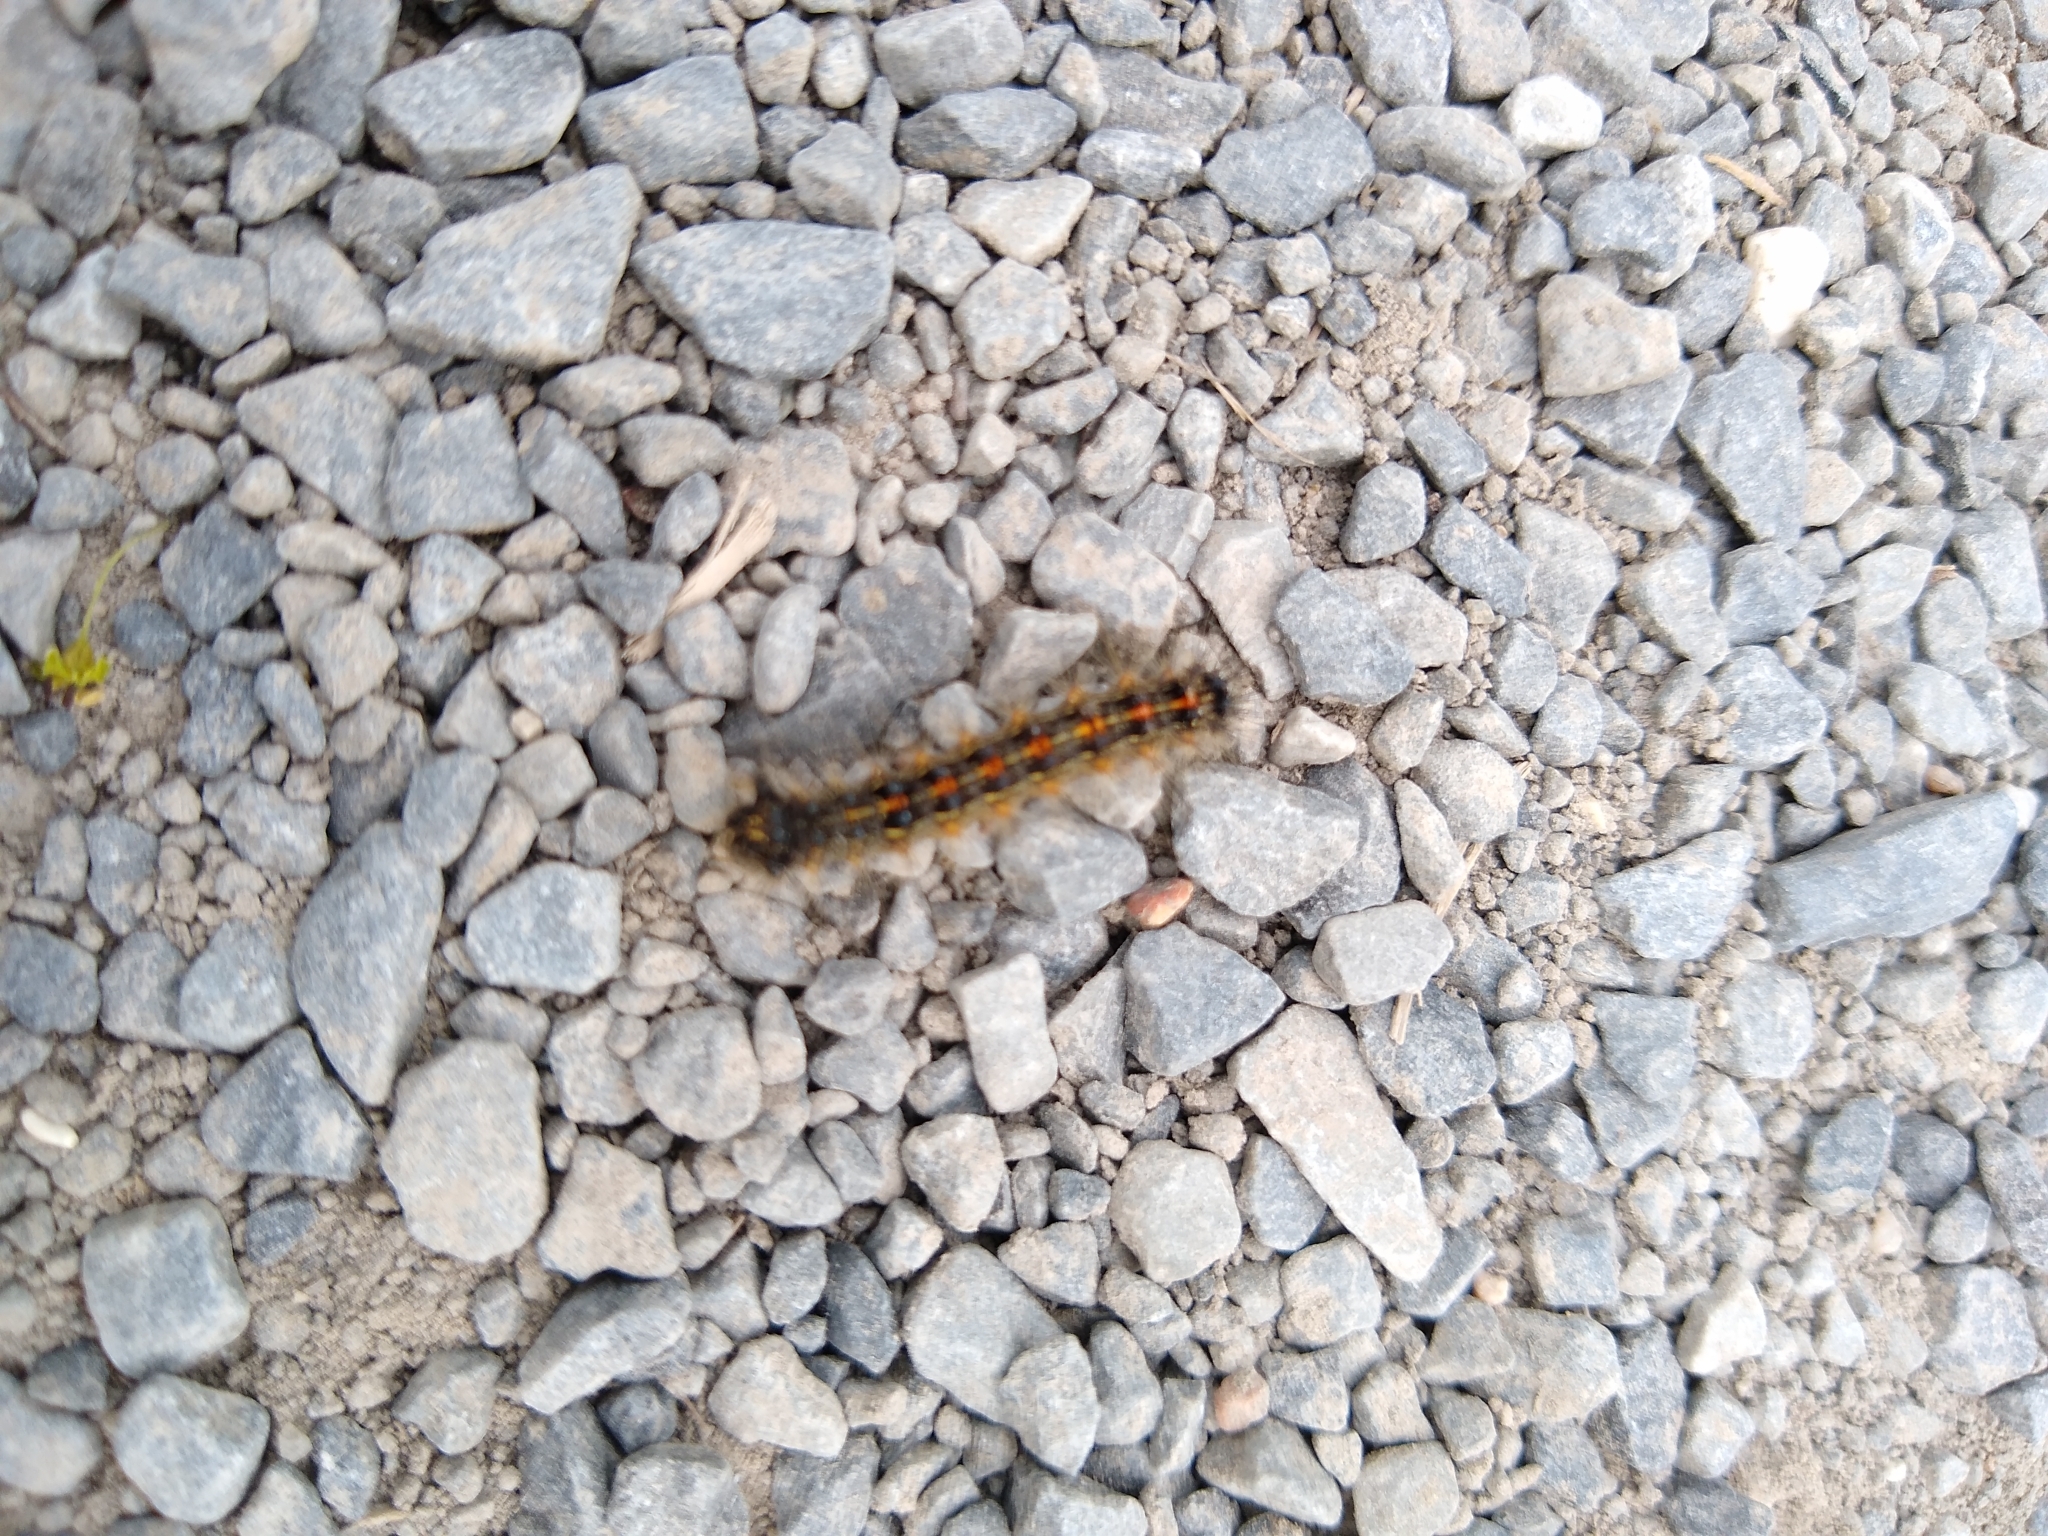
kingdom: Animalia
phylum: Arthropoda
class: Insecta
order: Lepidoptera
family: Erebidae
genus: Lymantria
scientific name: Lymantria dispar
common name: Gypsy moth
